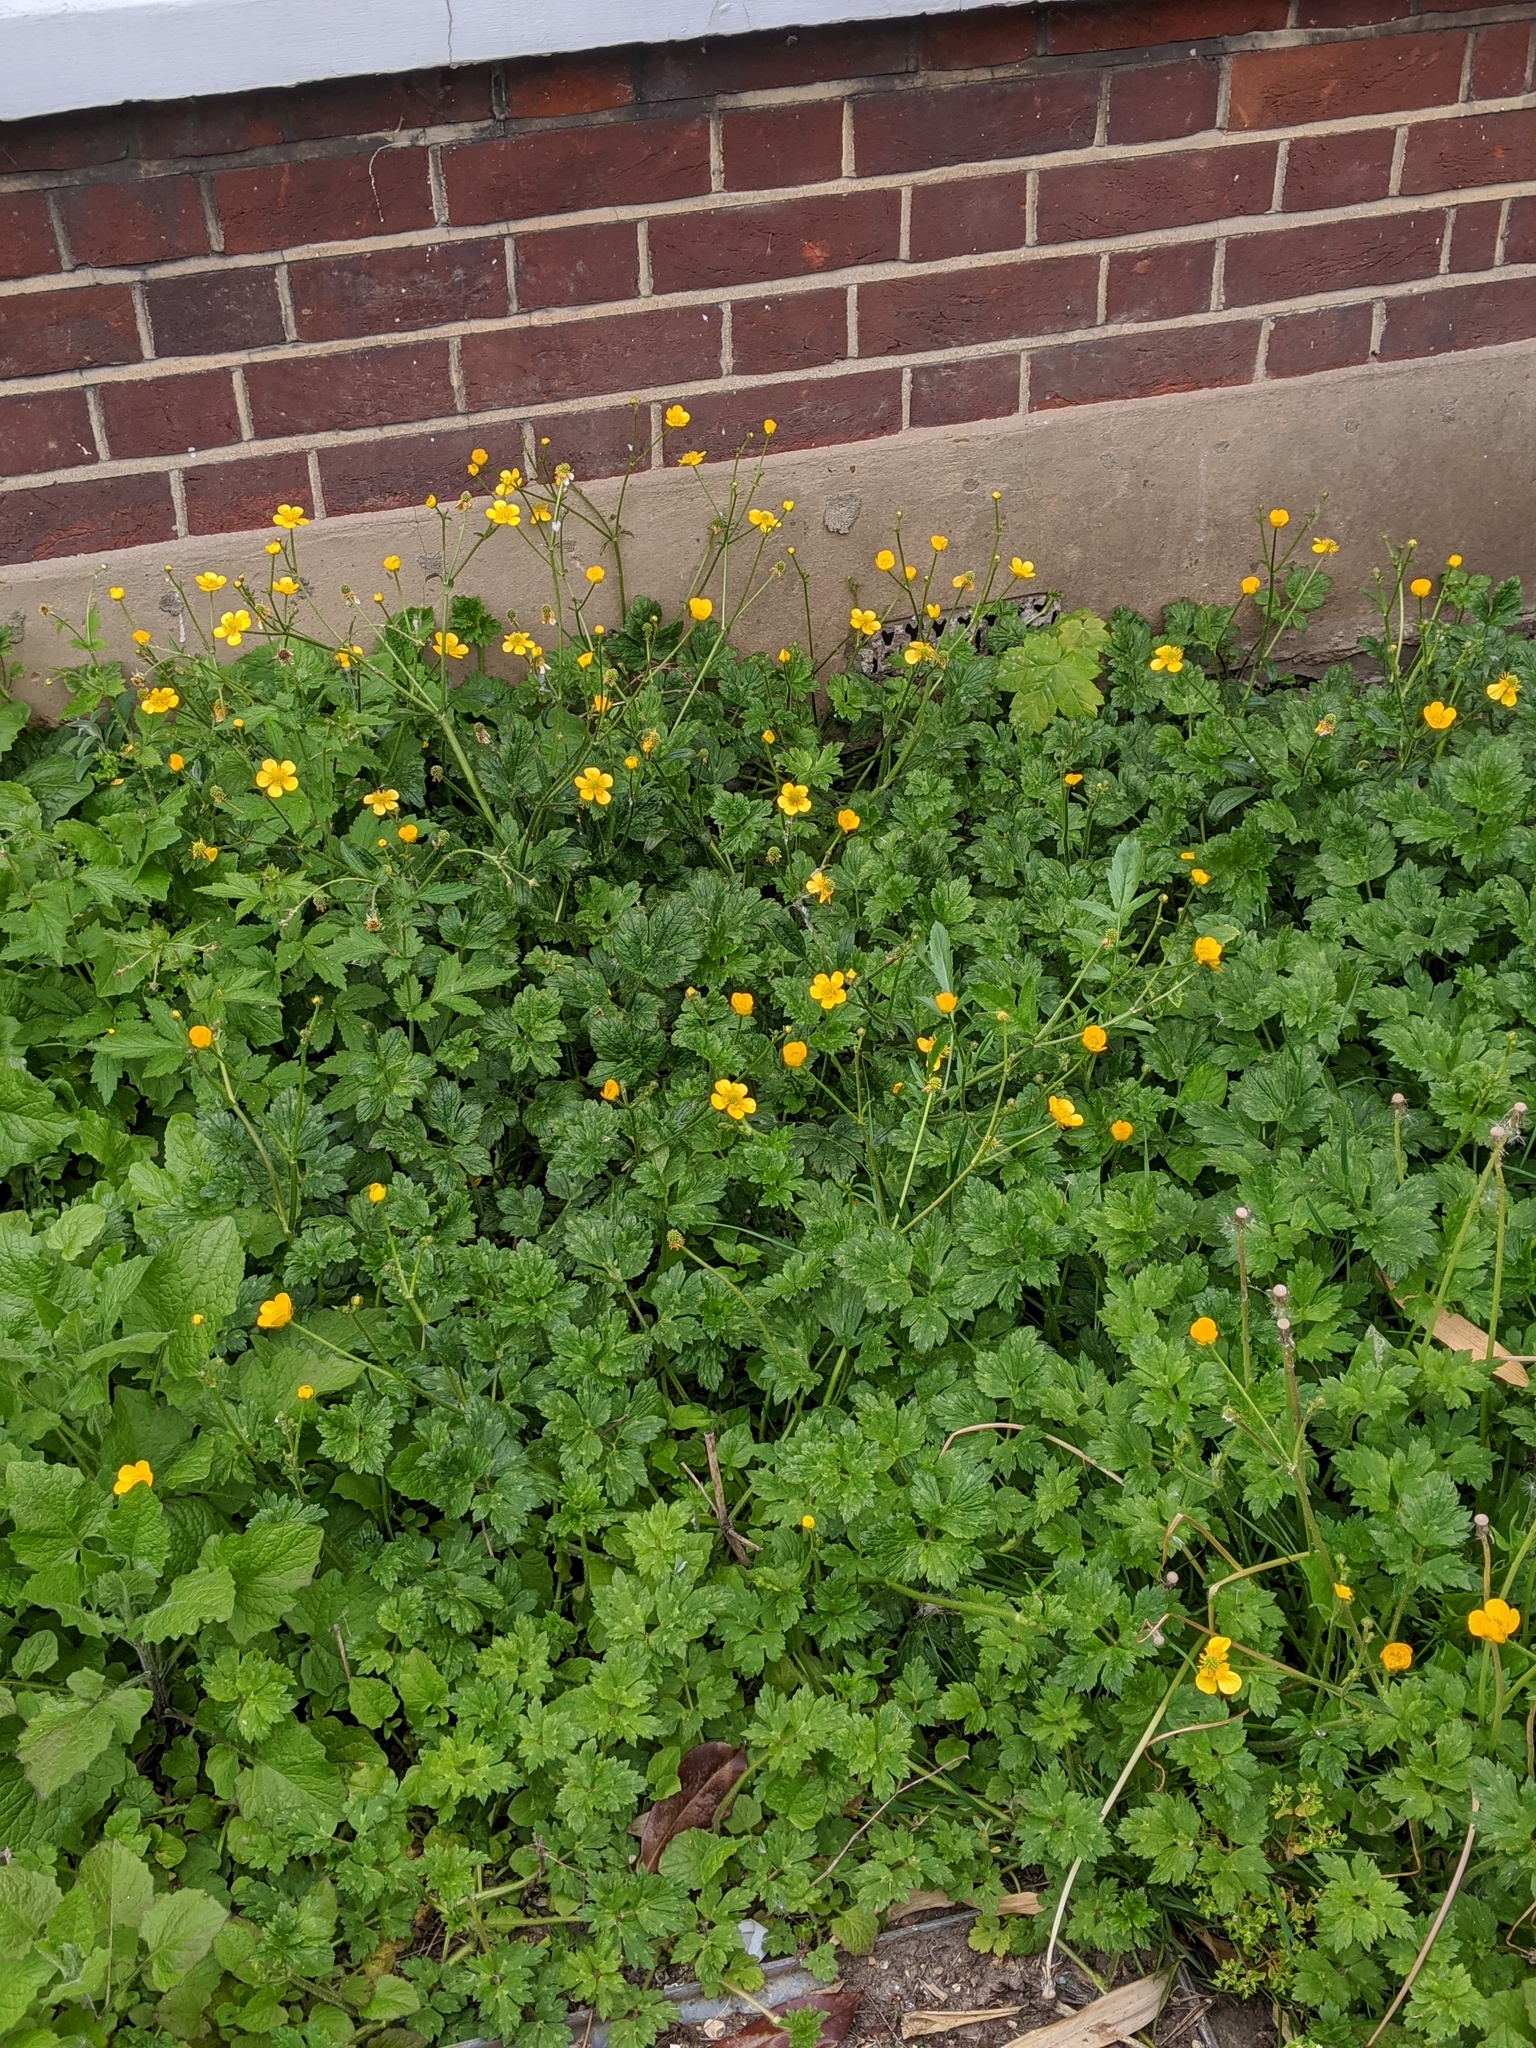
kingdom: Plantae
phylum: Tracheophyta
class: Magnoliopsida
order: Ranunculales
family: Ranunculaceae
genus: Ranunculus
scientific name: Ranunculus repens
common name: Creeping buttercup
